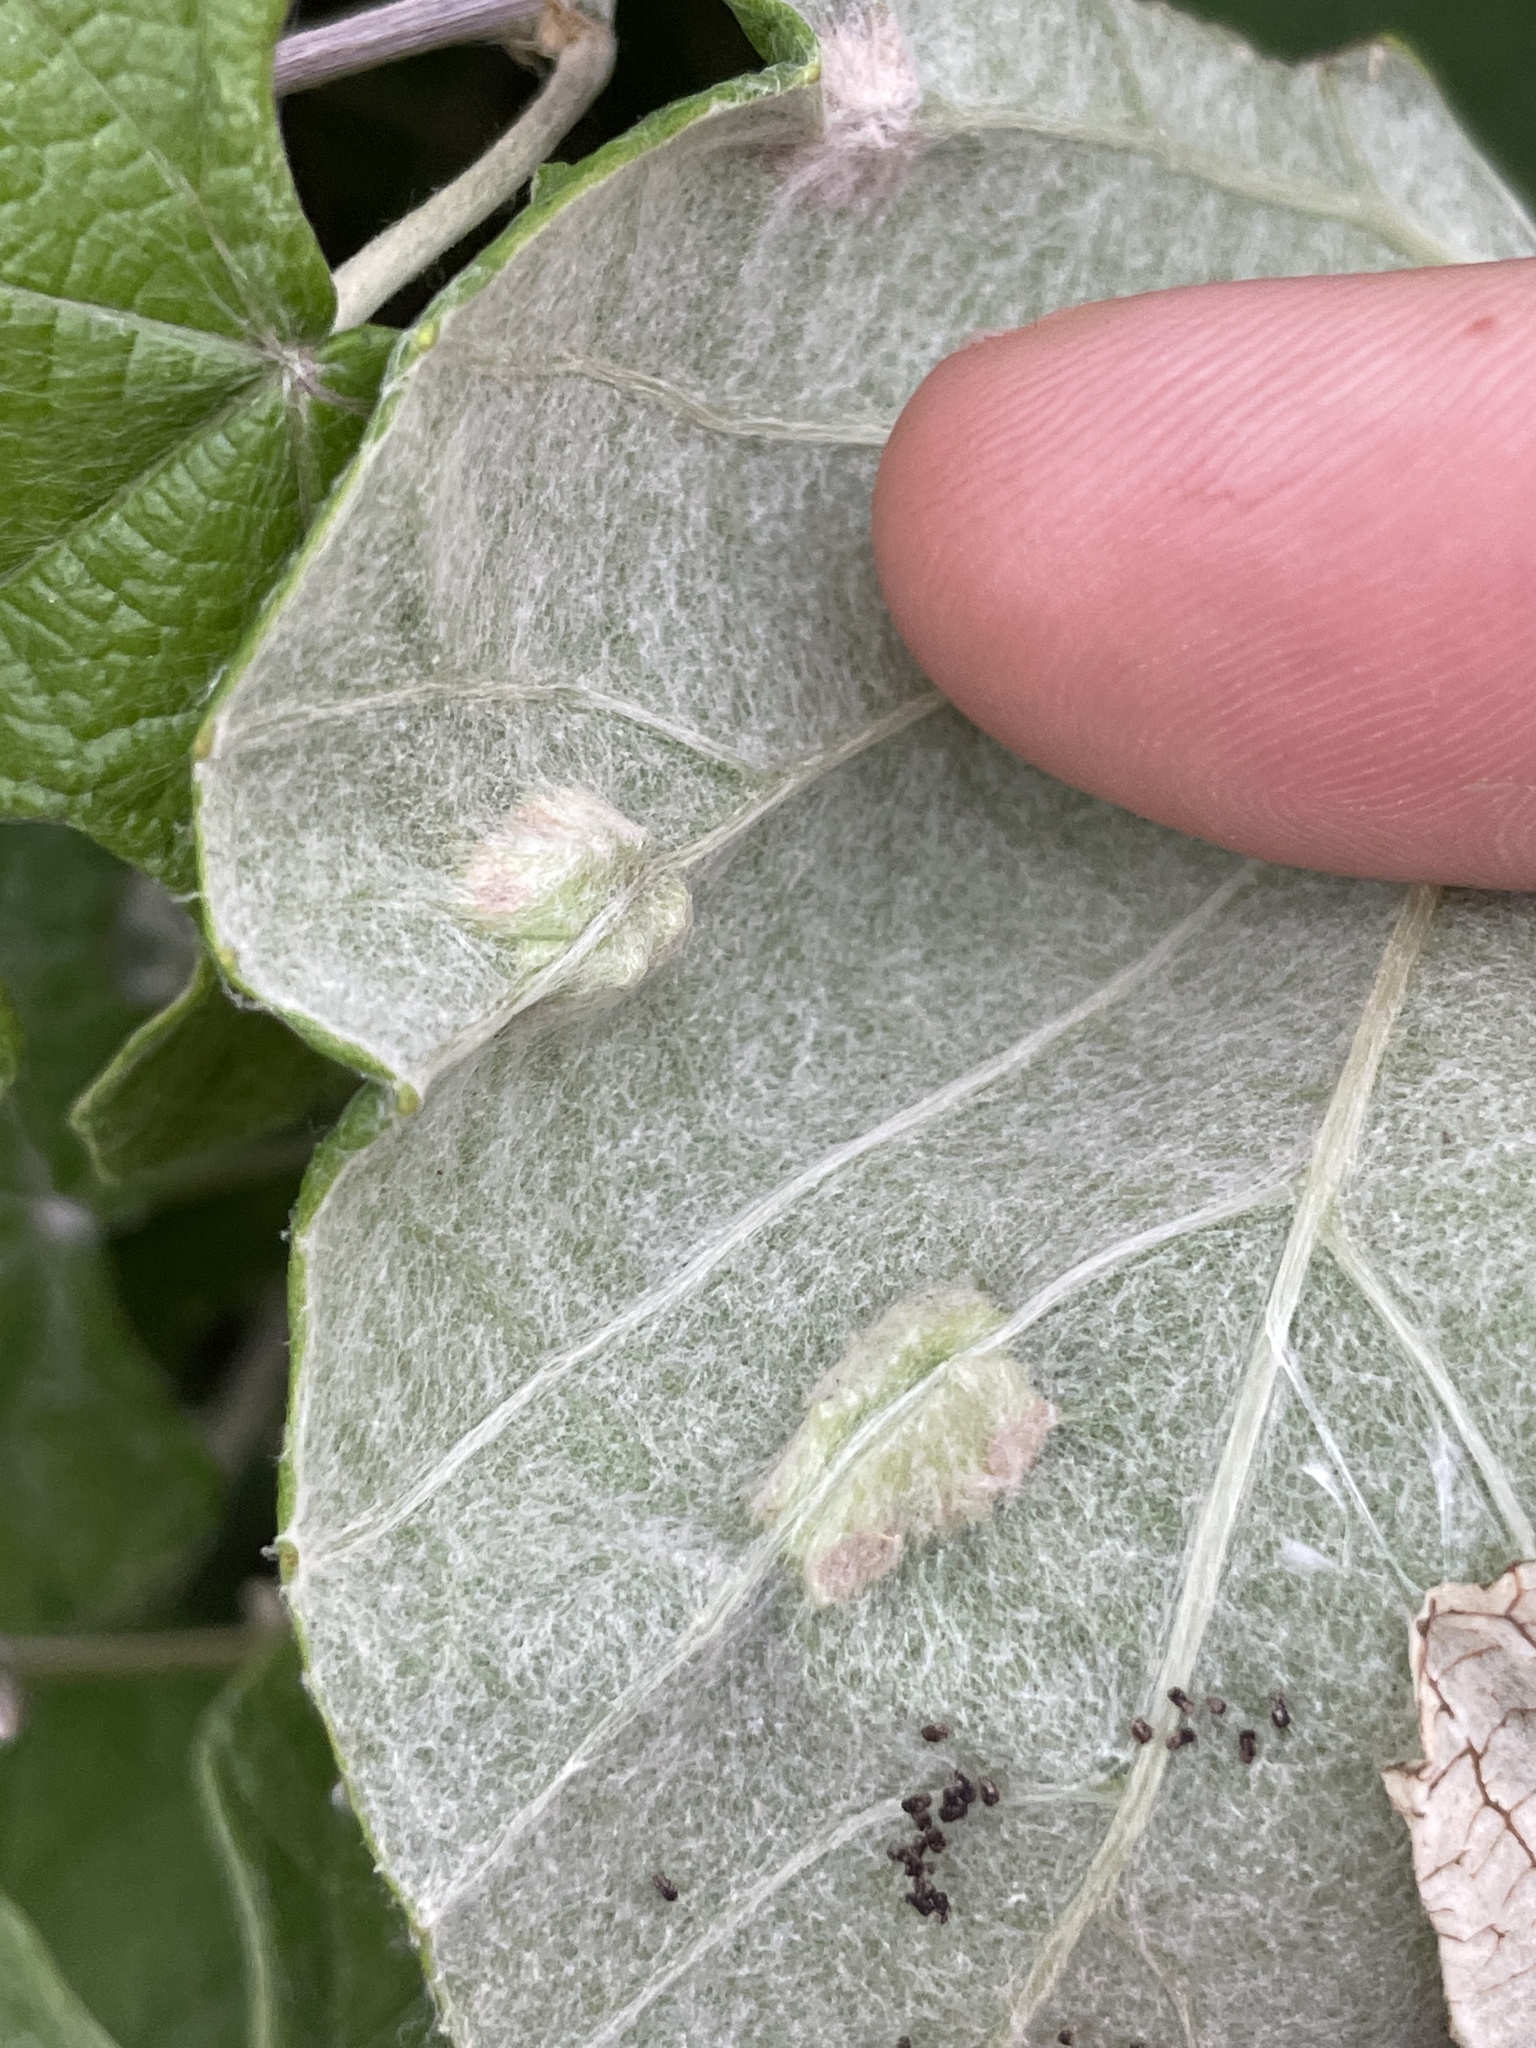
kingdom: Animalia
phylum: Arthropoda
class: Insecta
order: Lepidoptera
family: Heliozelidae
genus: Heliozela
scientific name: Heliozela aesella
